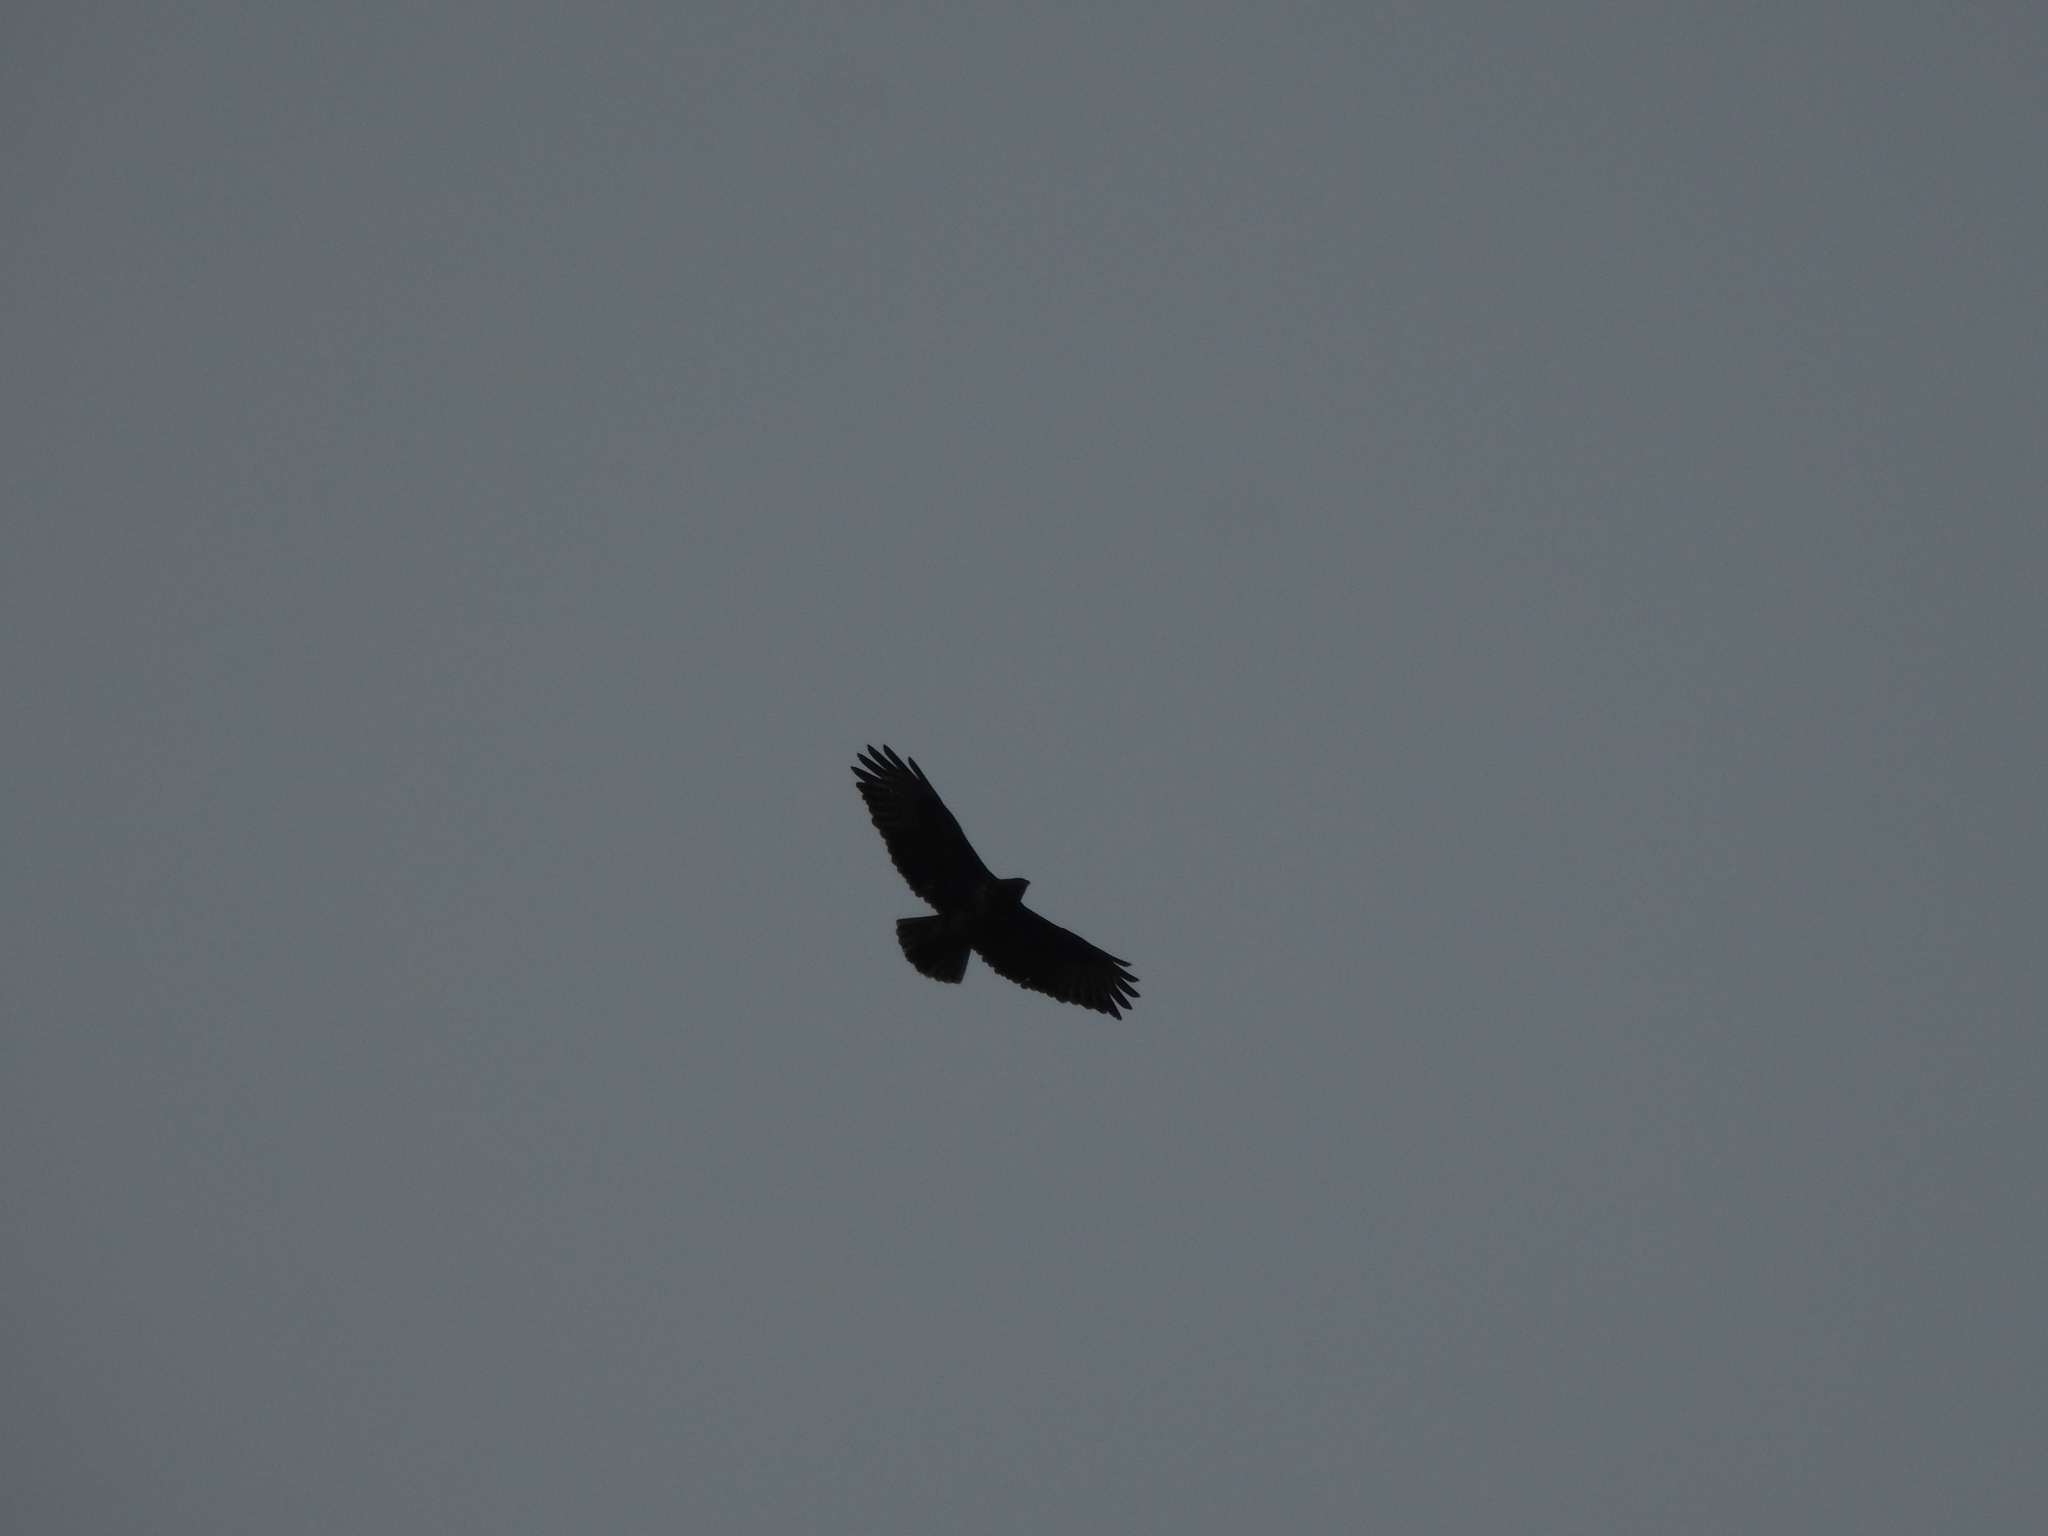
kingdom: Animalia
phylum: Chordata
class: Aves
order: Accipitriformes
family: Accipitridae
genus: Buteo
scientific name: Buteo buteo
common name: Common buzzard
